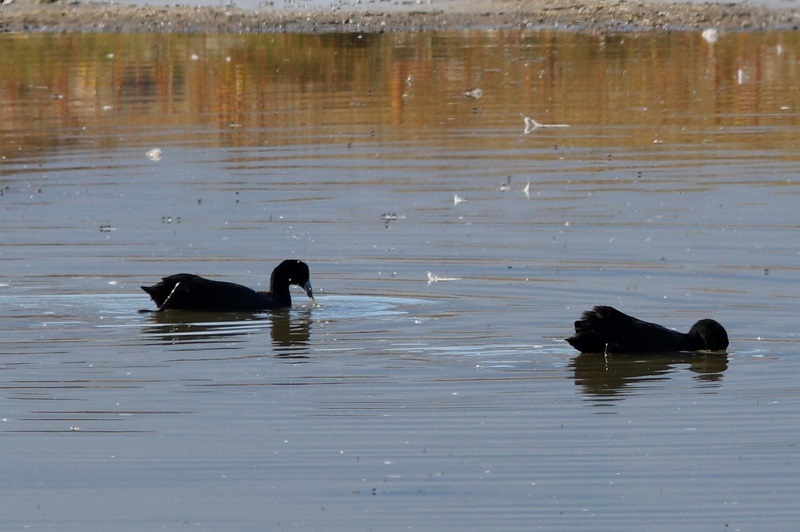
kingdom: Animalia
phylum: Chordata
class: Aves
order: Gruiformes
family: Rallidae
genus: Fulica
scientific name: Fulica cristata
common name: Red-knobbed coot
